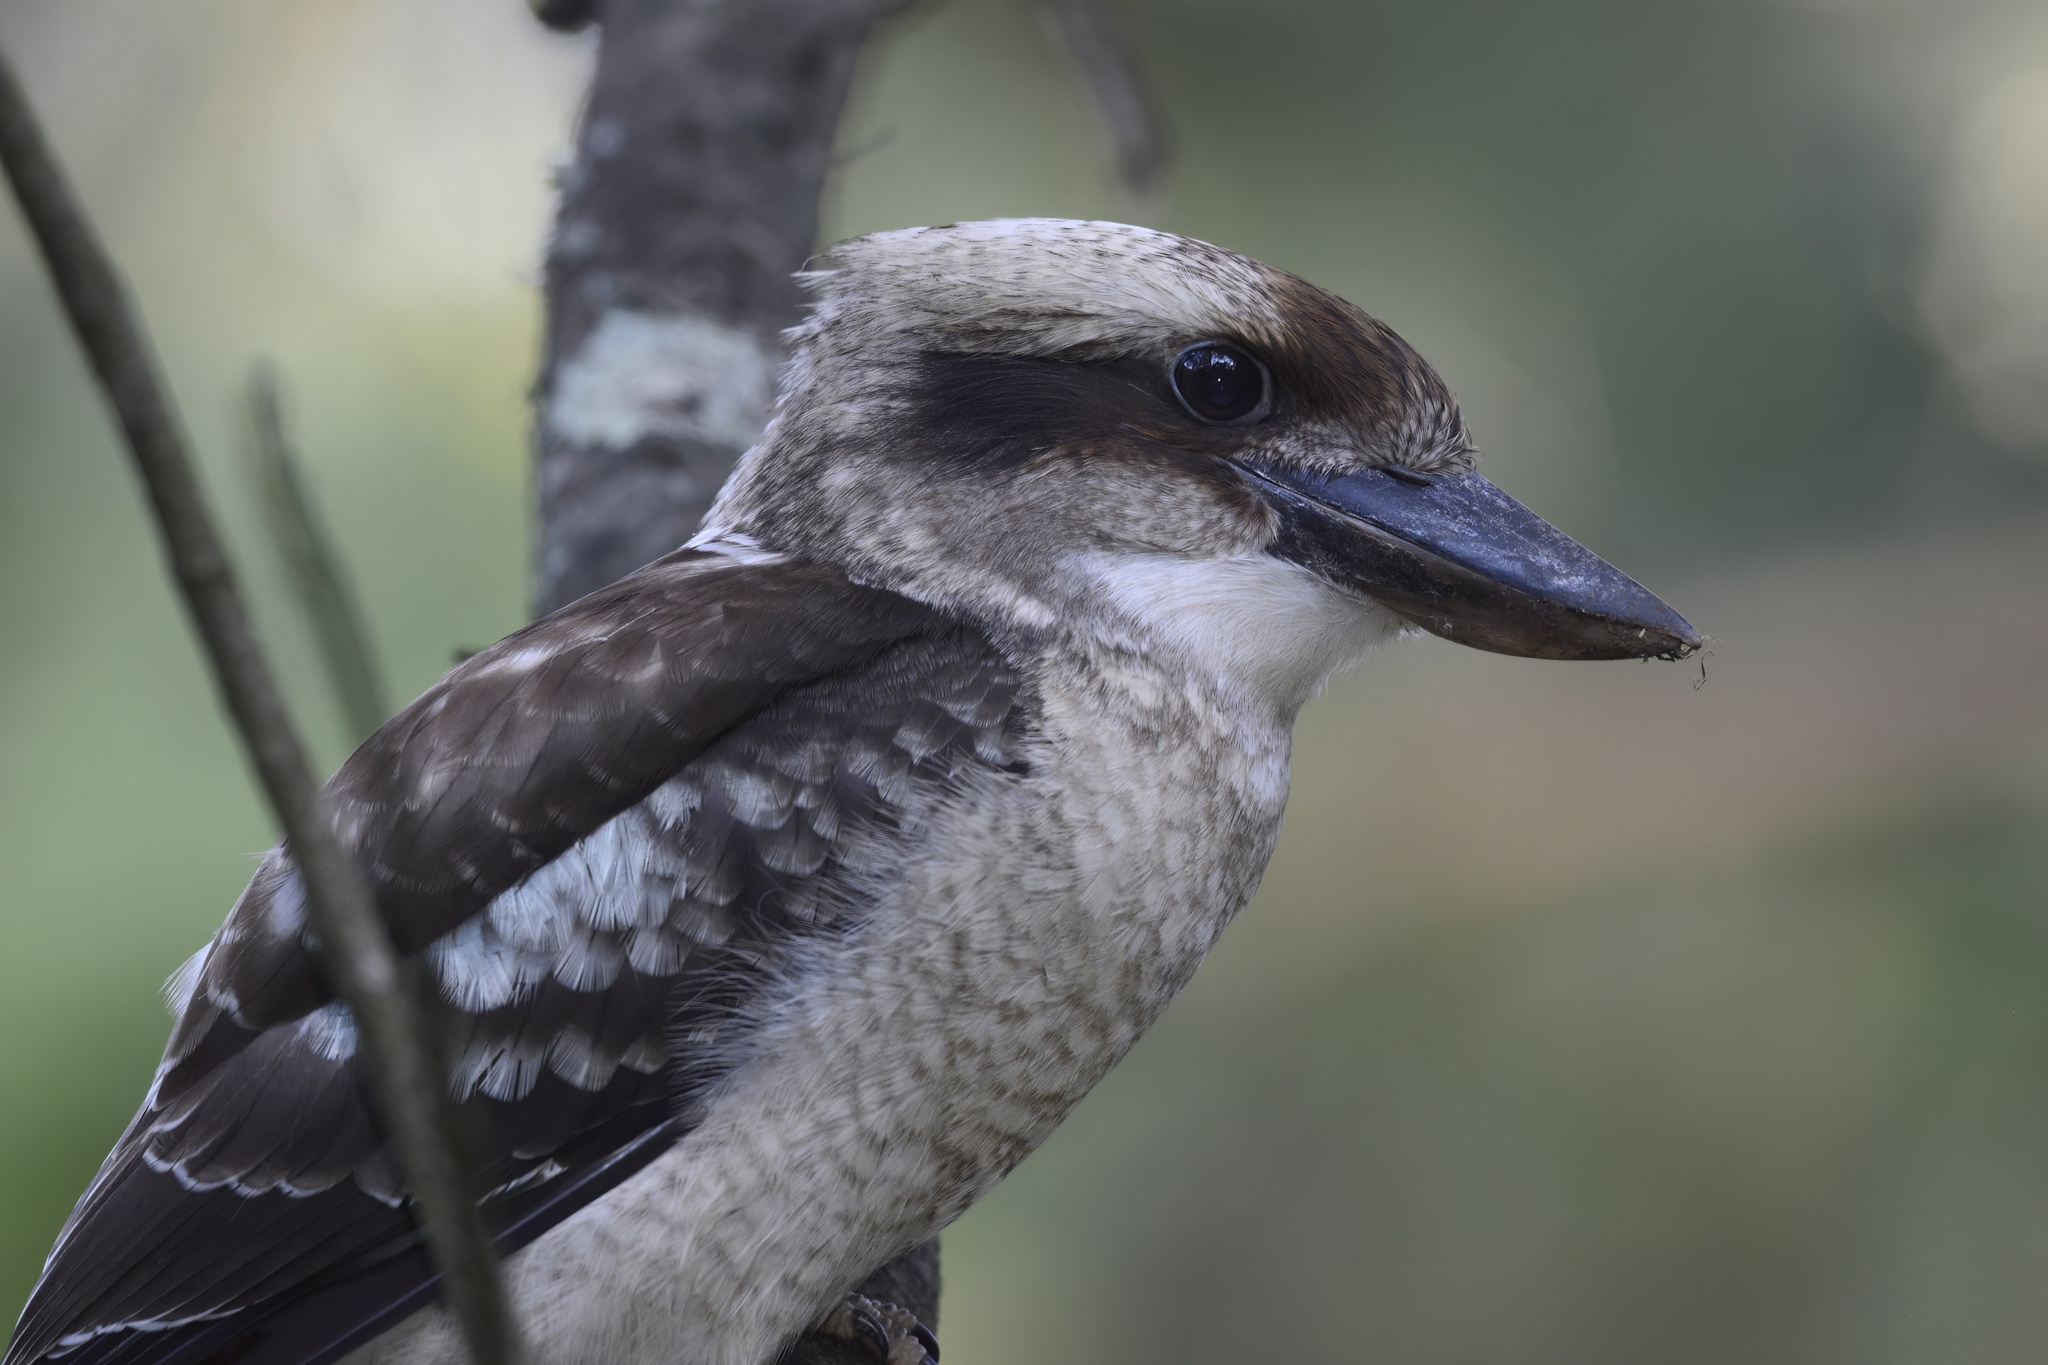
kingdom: Animalia
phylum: Chordata
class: Aves
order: Coraciiformes
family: Alcedinidae
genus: Dacelo
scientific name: Dacelo novaeguineae
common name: Laughing kookaburra
